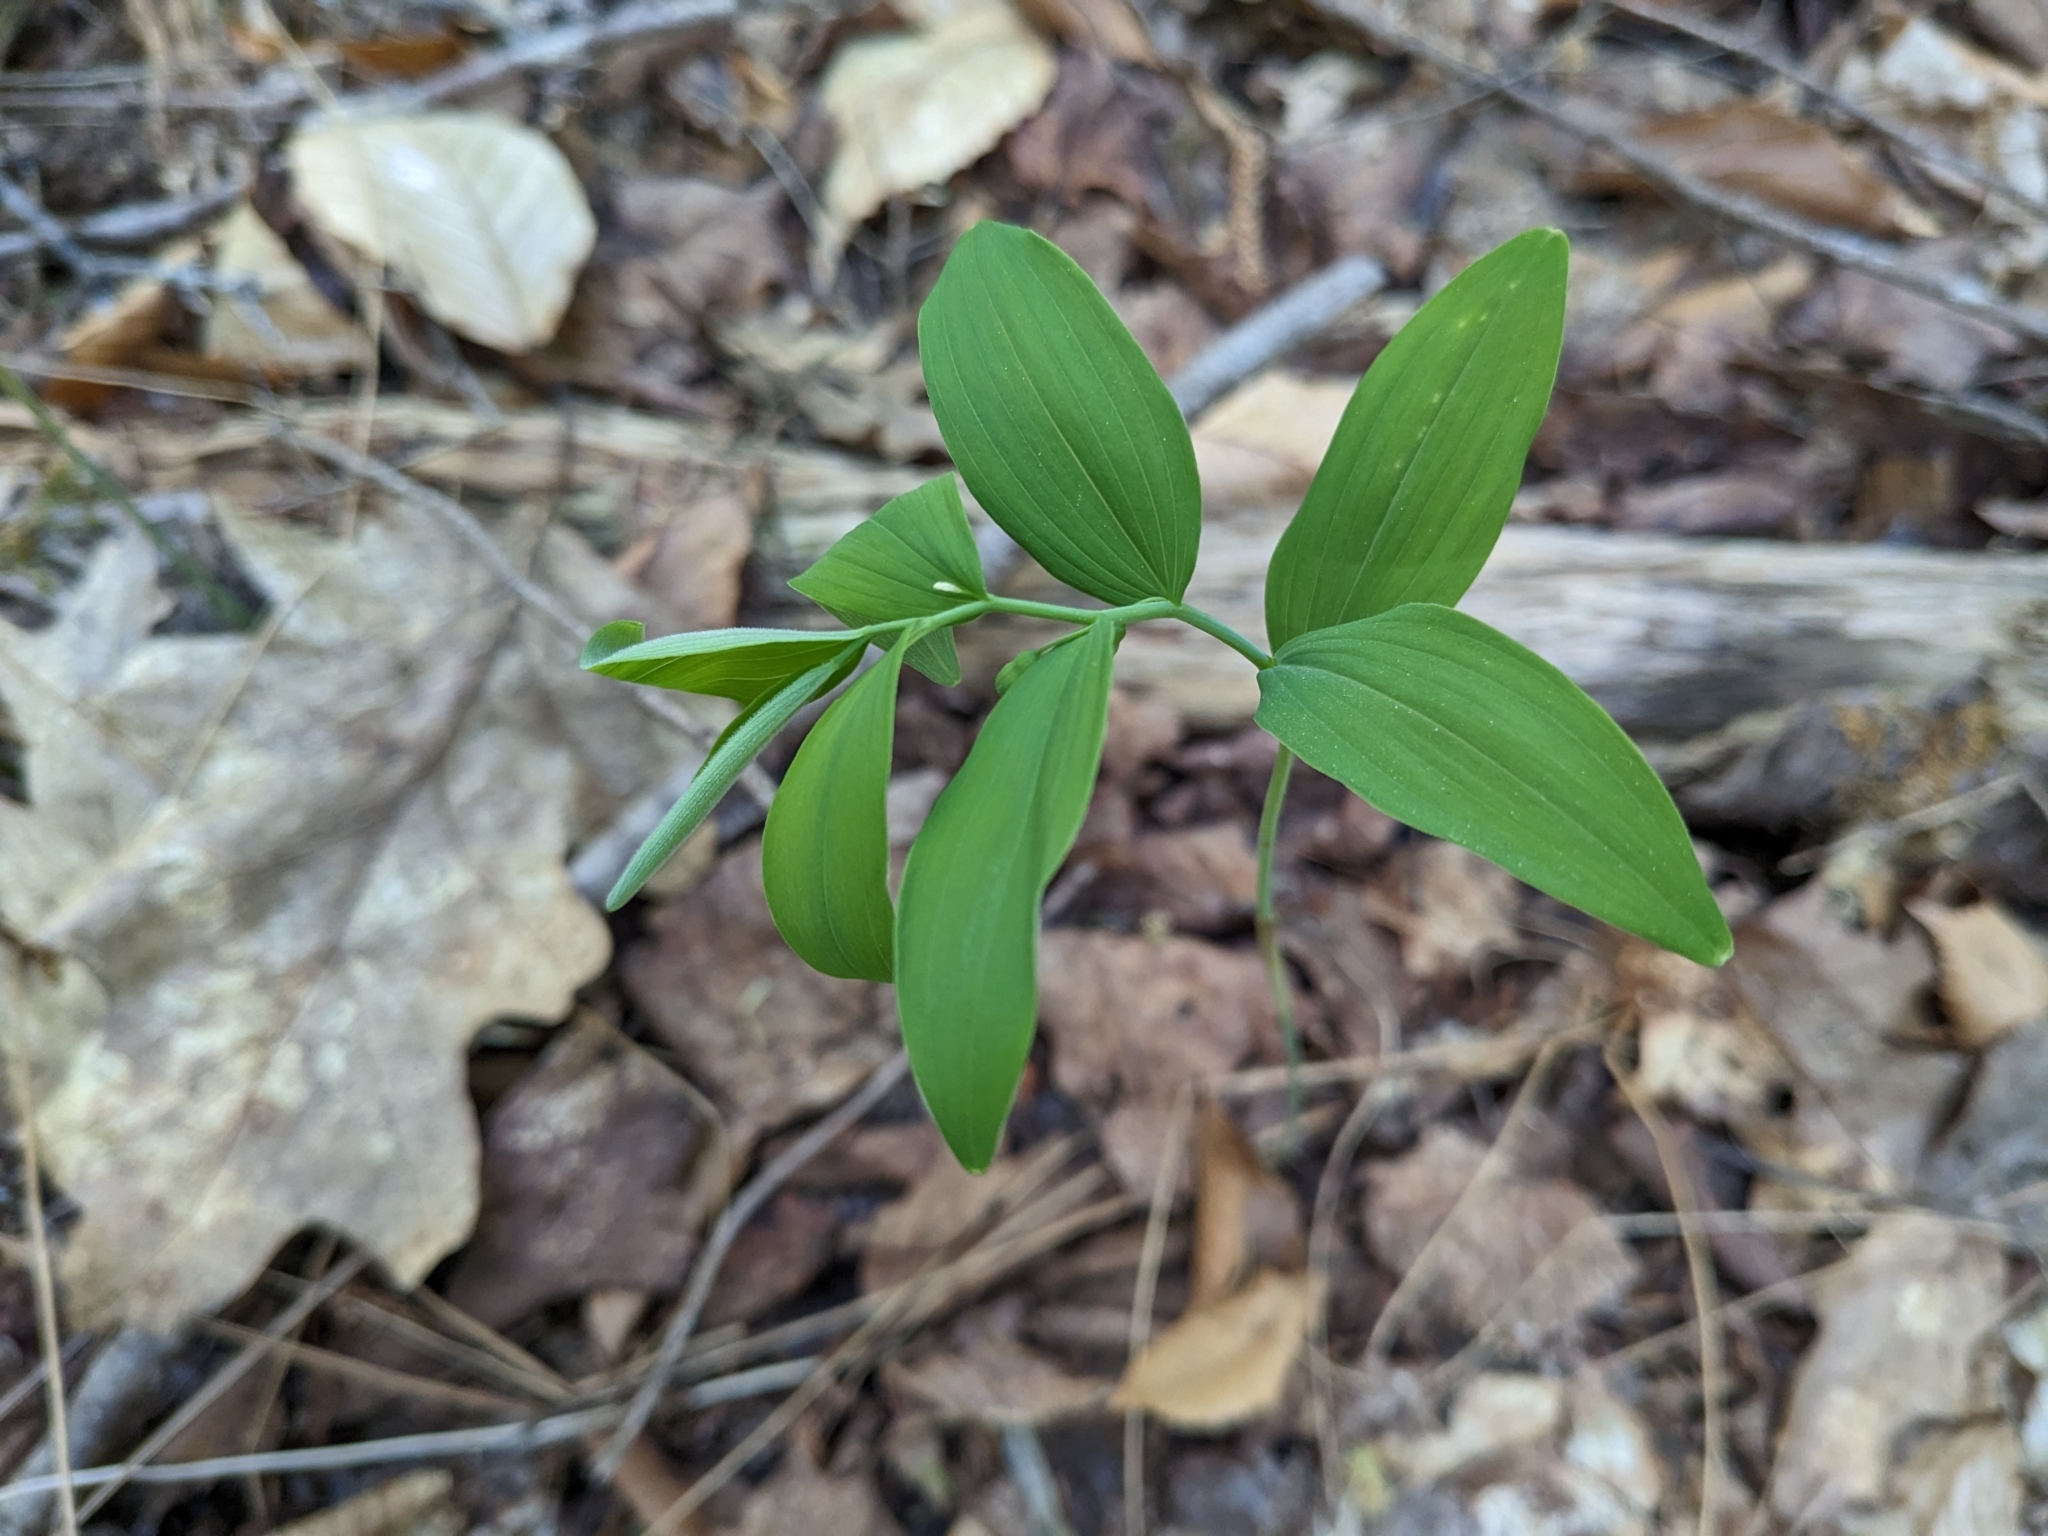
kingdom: Plantae
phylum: Tracheophyta
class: Liliopsida
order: Asparagales
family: Asparagaceae
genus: Polygonatum
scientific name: Polygonatum pubescens
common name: Downy solomon's seal
